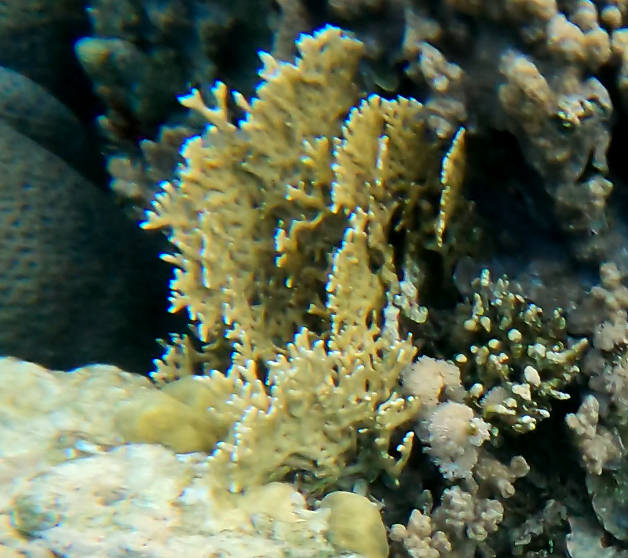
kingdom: Animalia
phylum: Cnidaria
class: Hydrozoa
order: Anthoathecata
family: Milleporidae
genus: Millepora
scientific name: Millepora dichotoma
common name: Ramified fire coral
